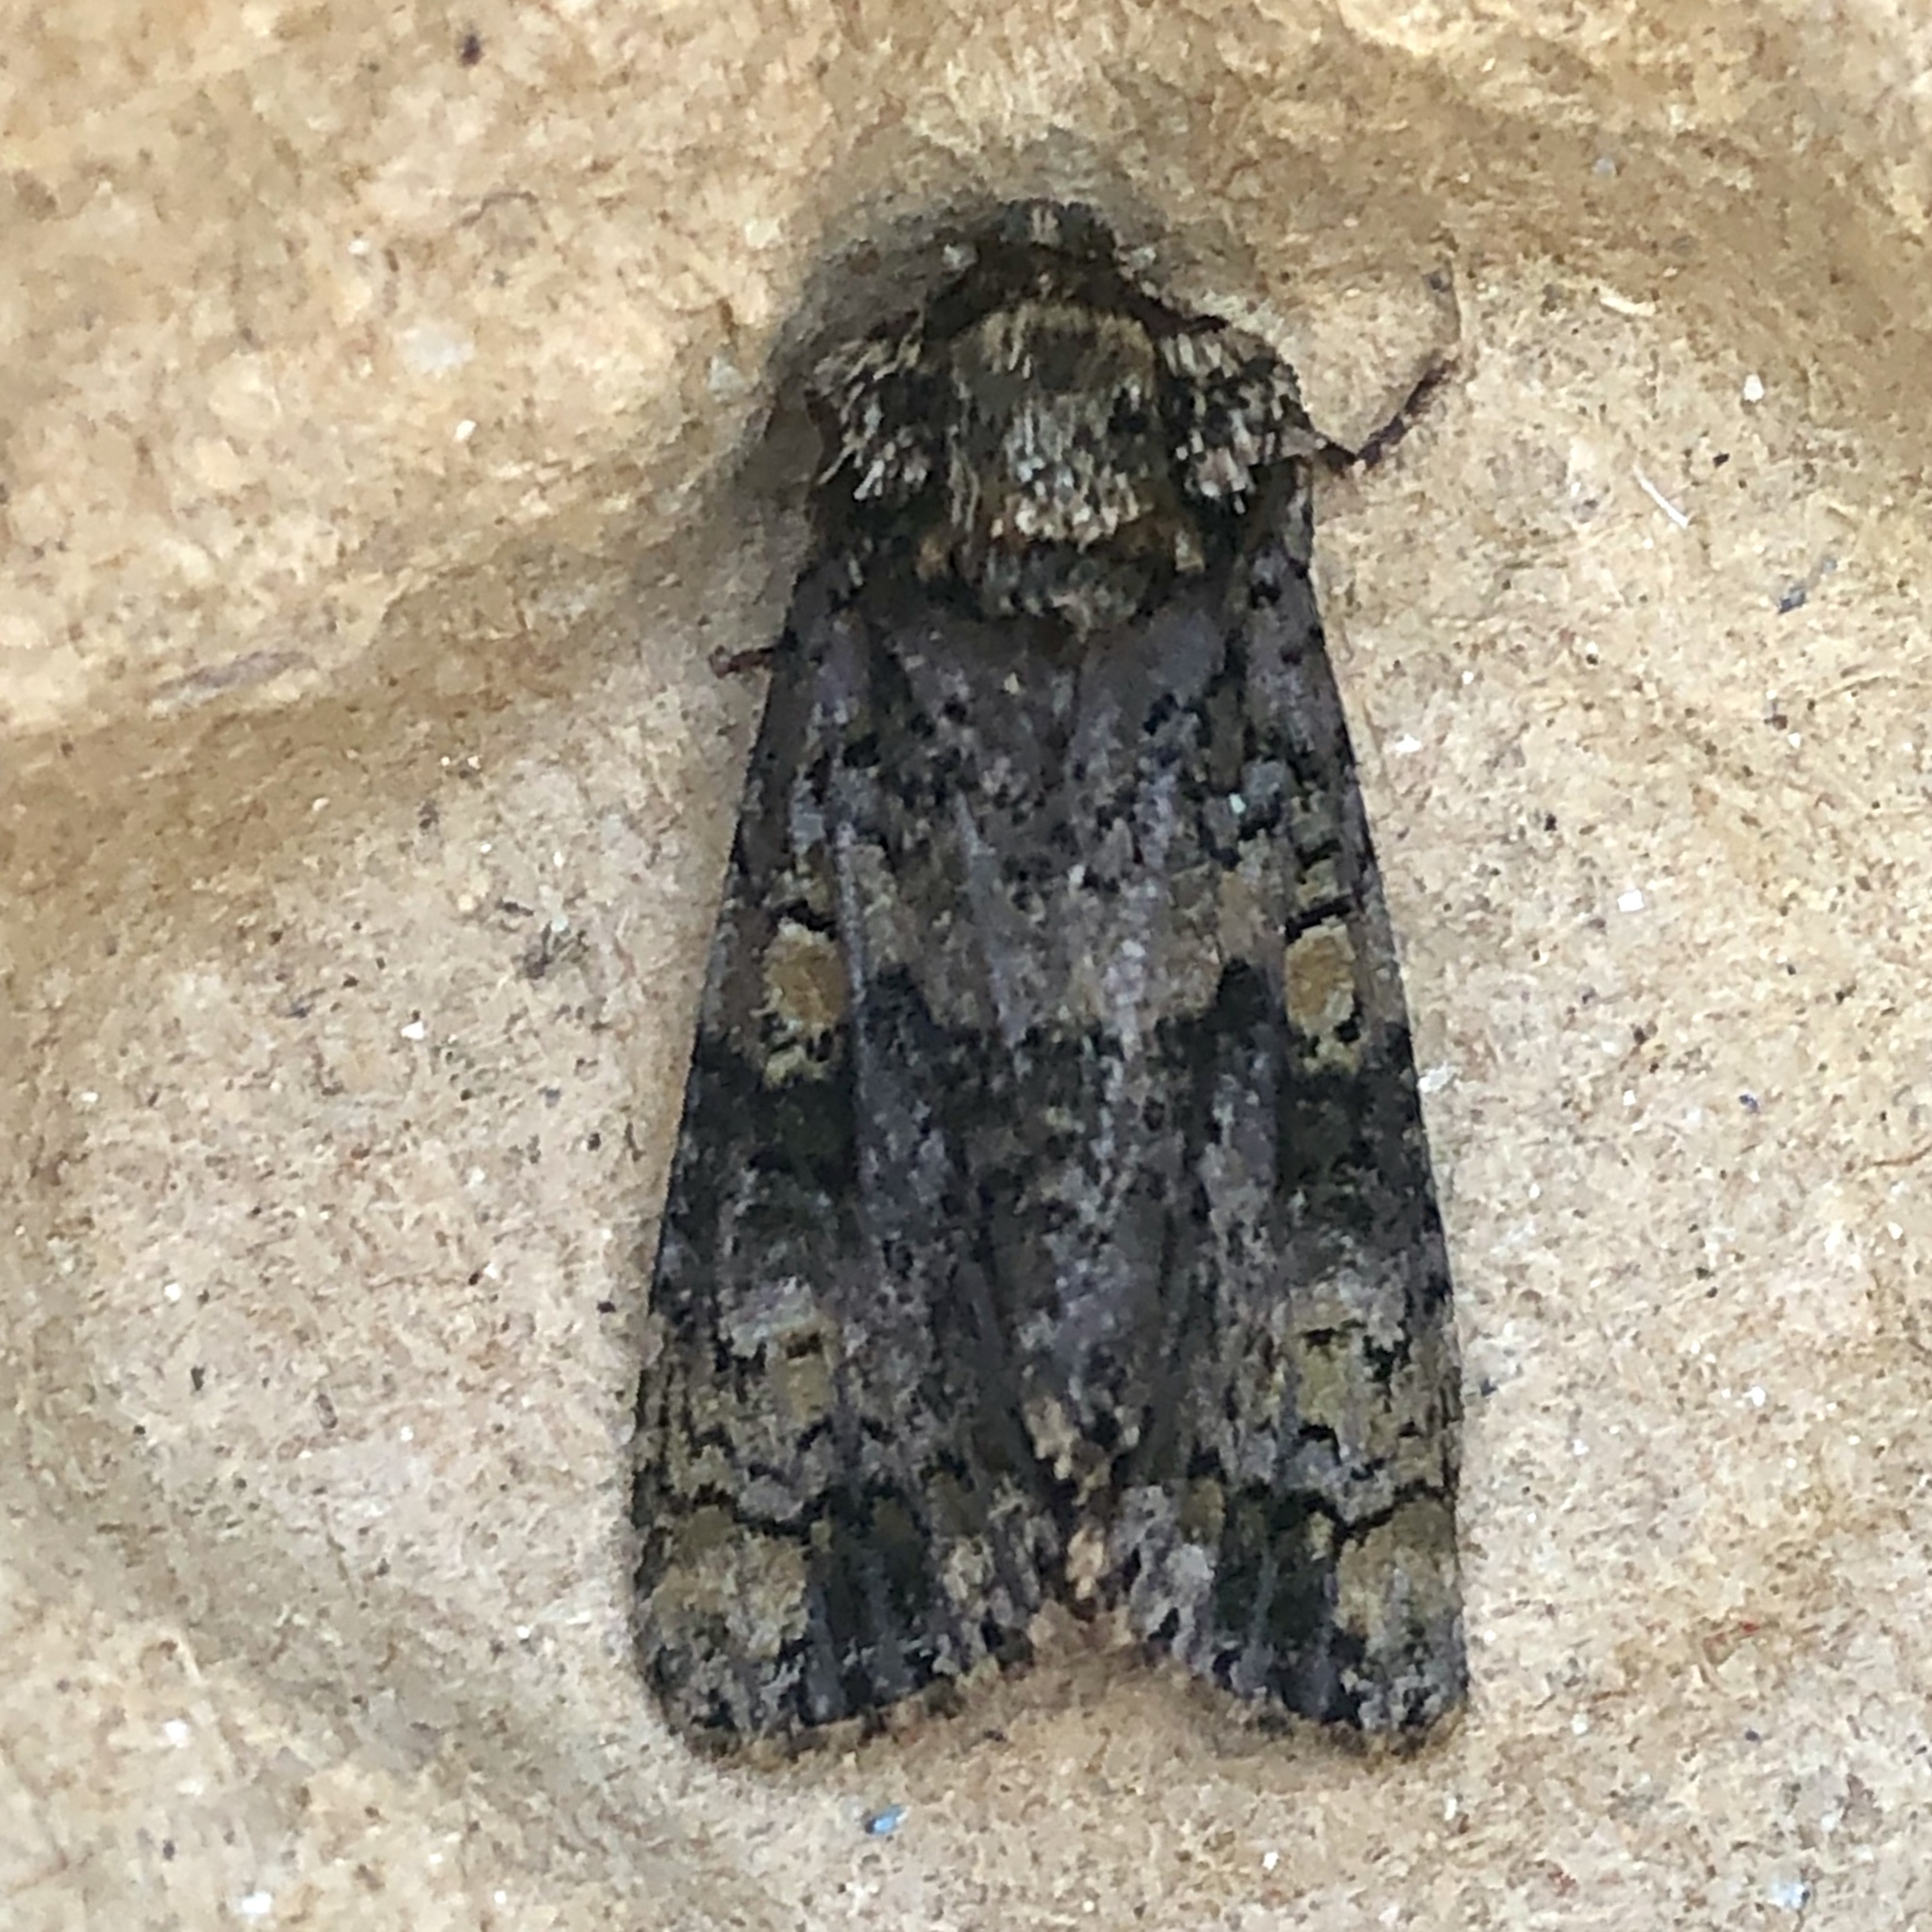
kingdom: Animalia
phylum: Arthropoda
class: Insecta
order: Lepidoptera
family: Noctuidae
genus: Craniophora
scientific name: Craniophora ligustri
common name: Coronet
